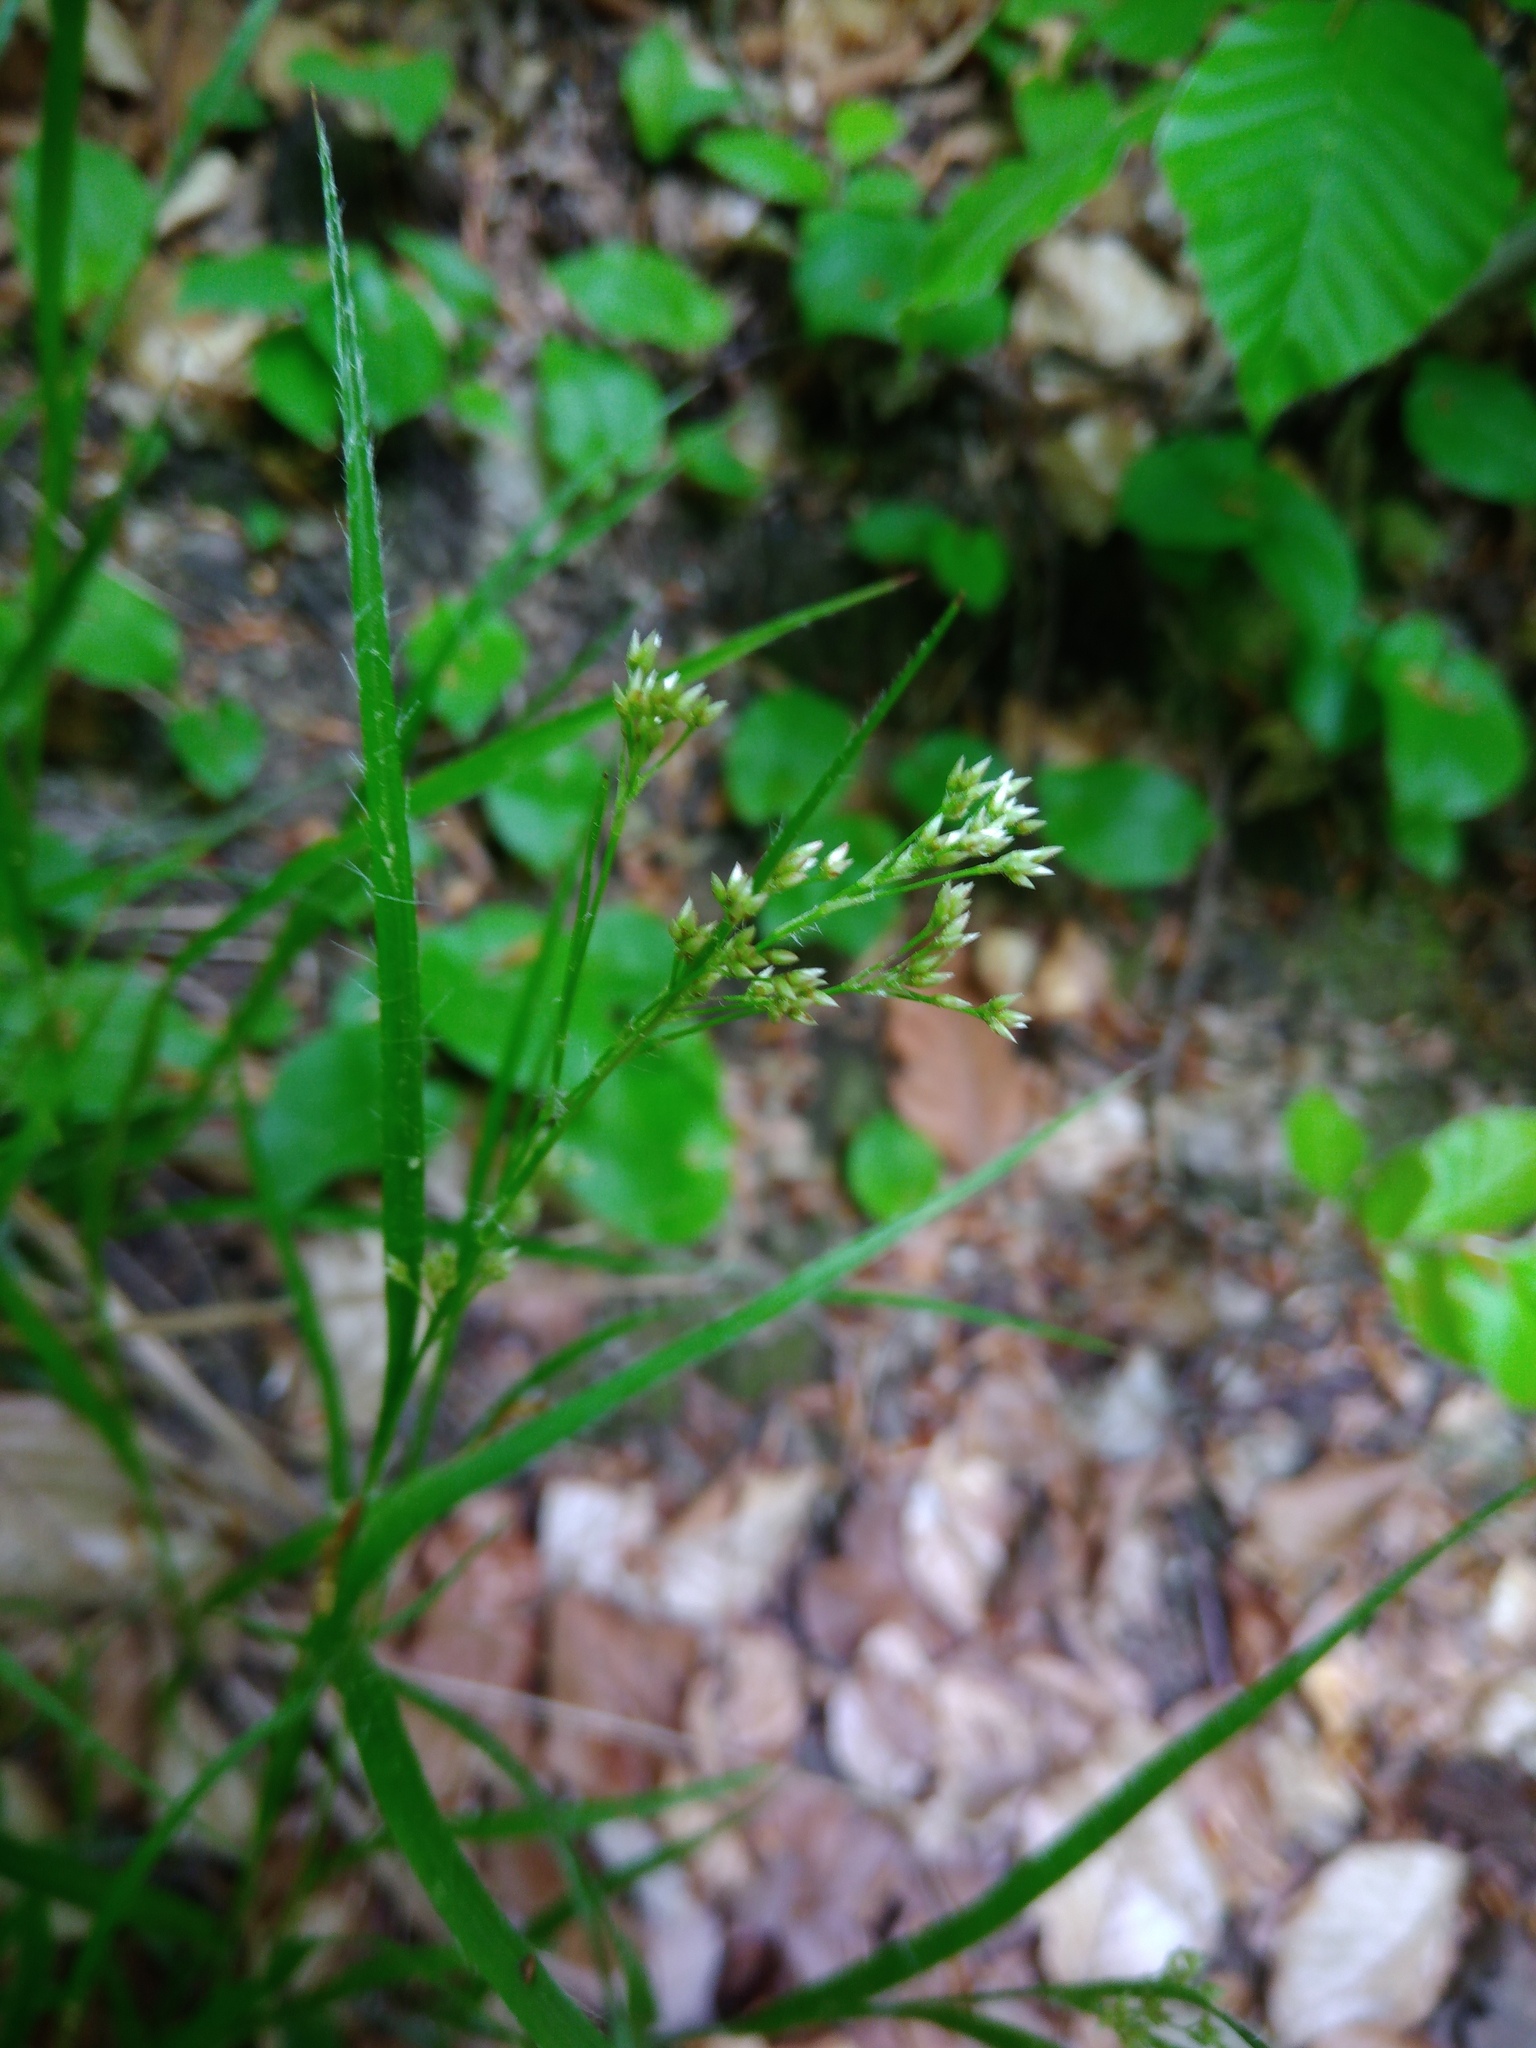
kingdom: Plantae
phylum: Tracheophyta
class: Liliopsida
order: Poales
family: Juncaceae
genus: Luzula
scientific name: Luzula luzuloides
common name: White wood-rush
